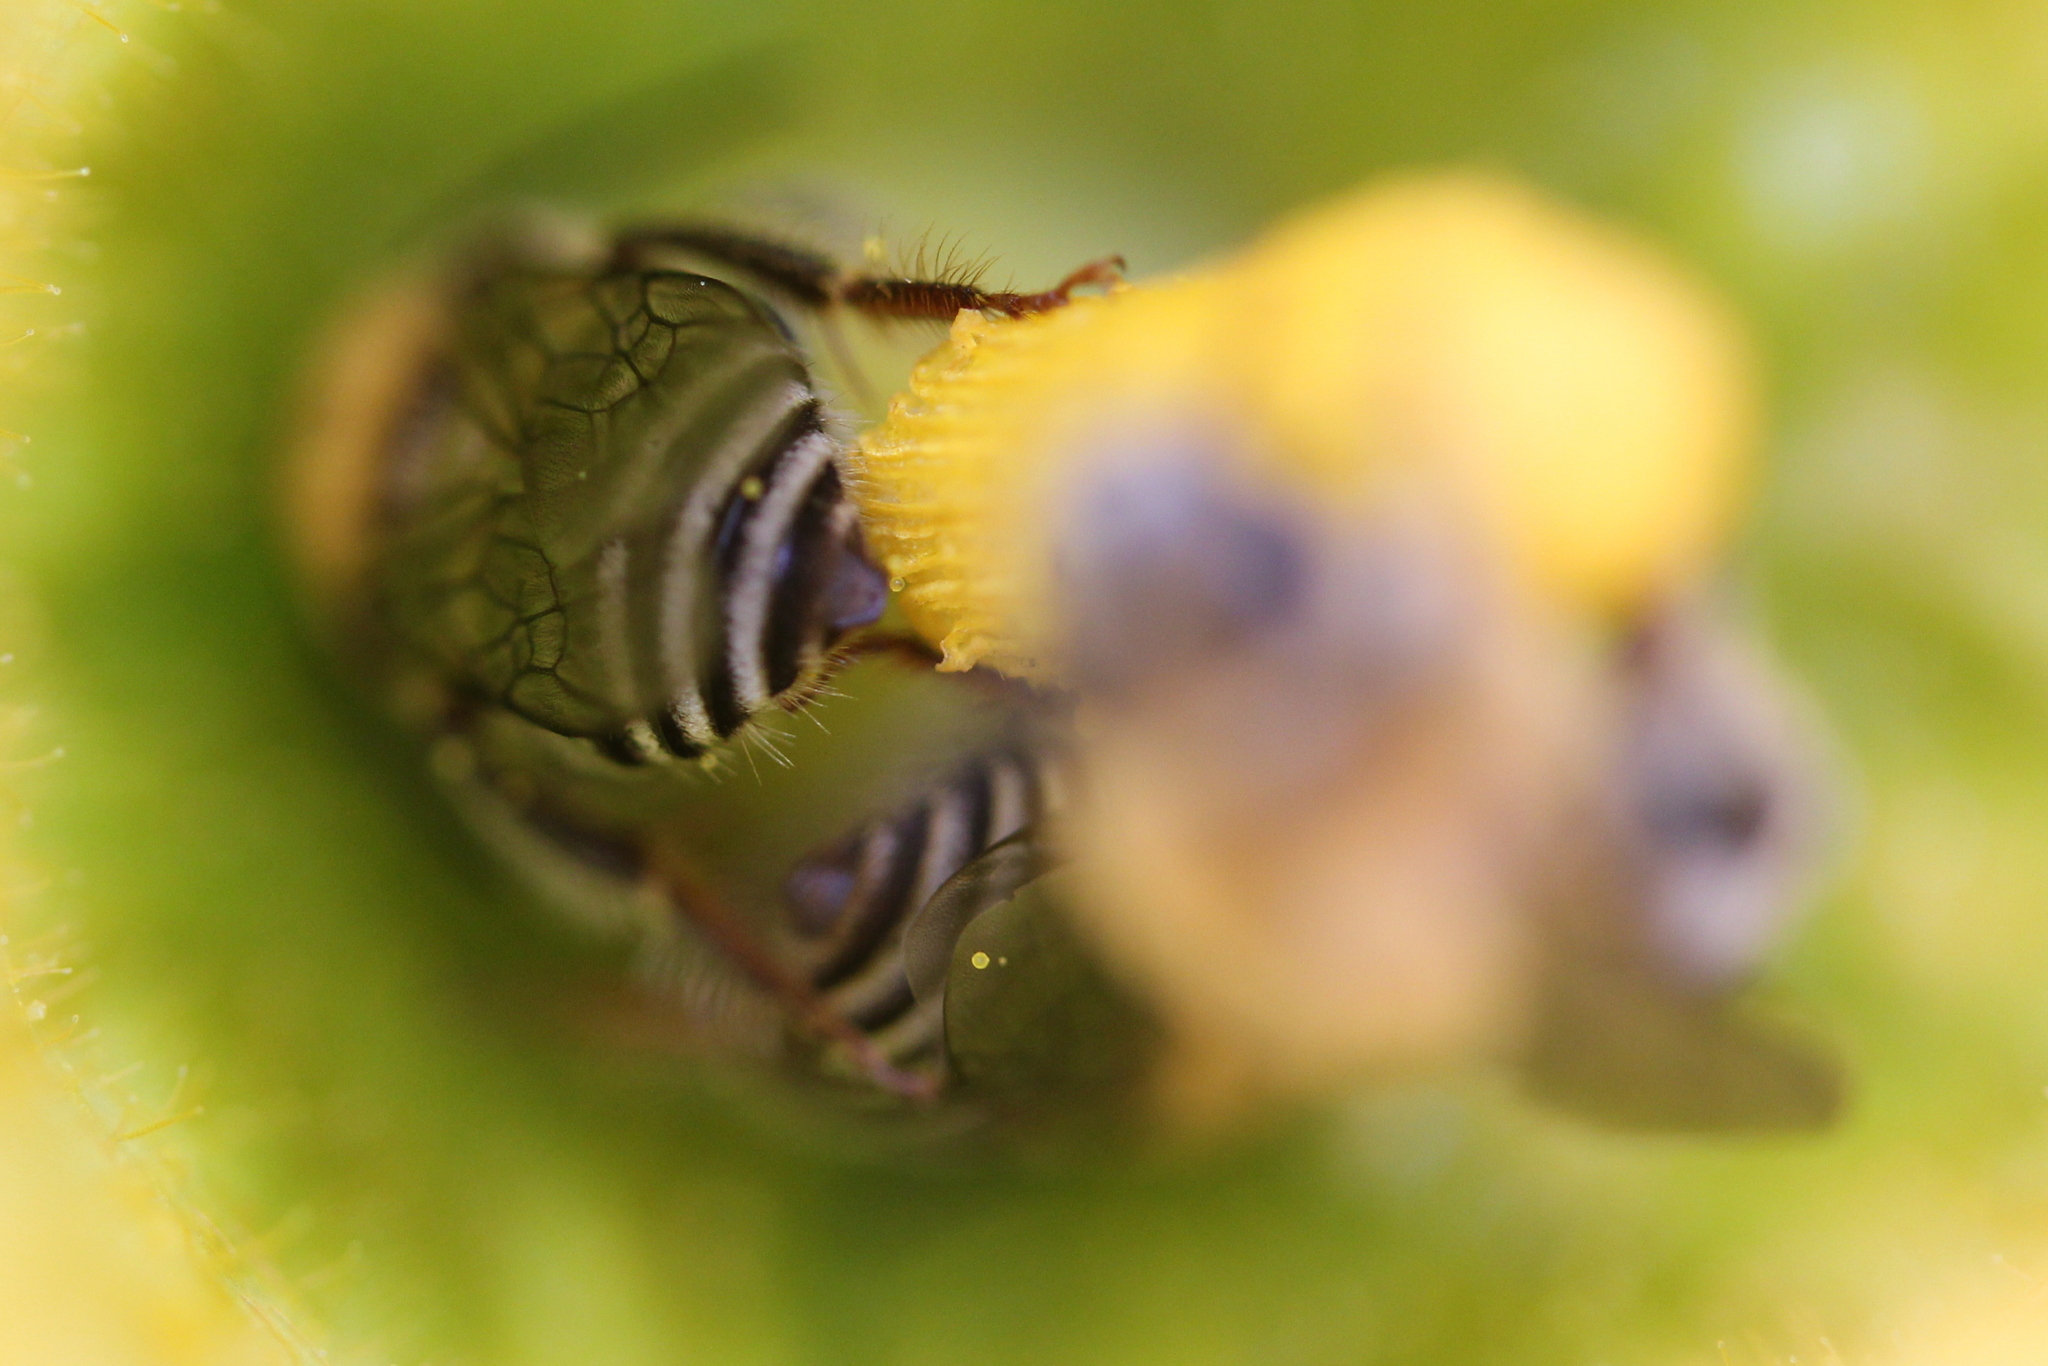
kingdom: Animalia
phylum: Arthropoda
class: Insecta
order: Hymenoptera
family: Apidae
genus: Peponapis
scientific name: Peponapis pruinosa
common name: Pruinose squash bee
